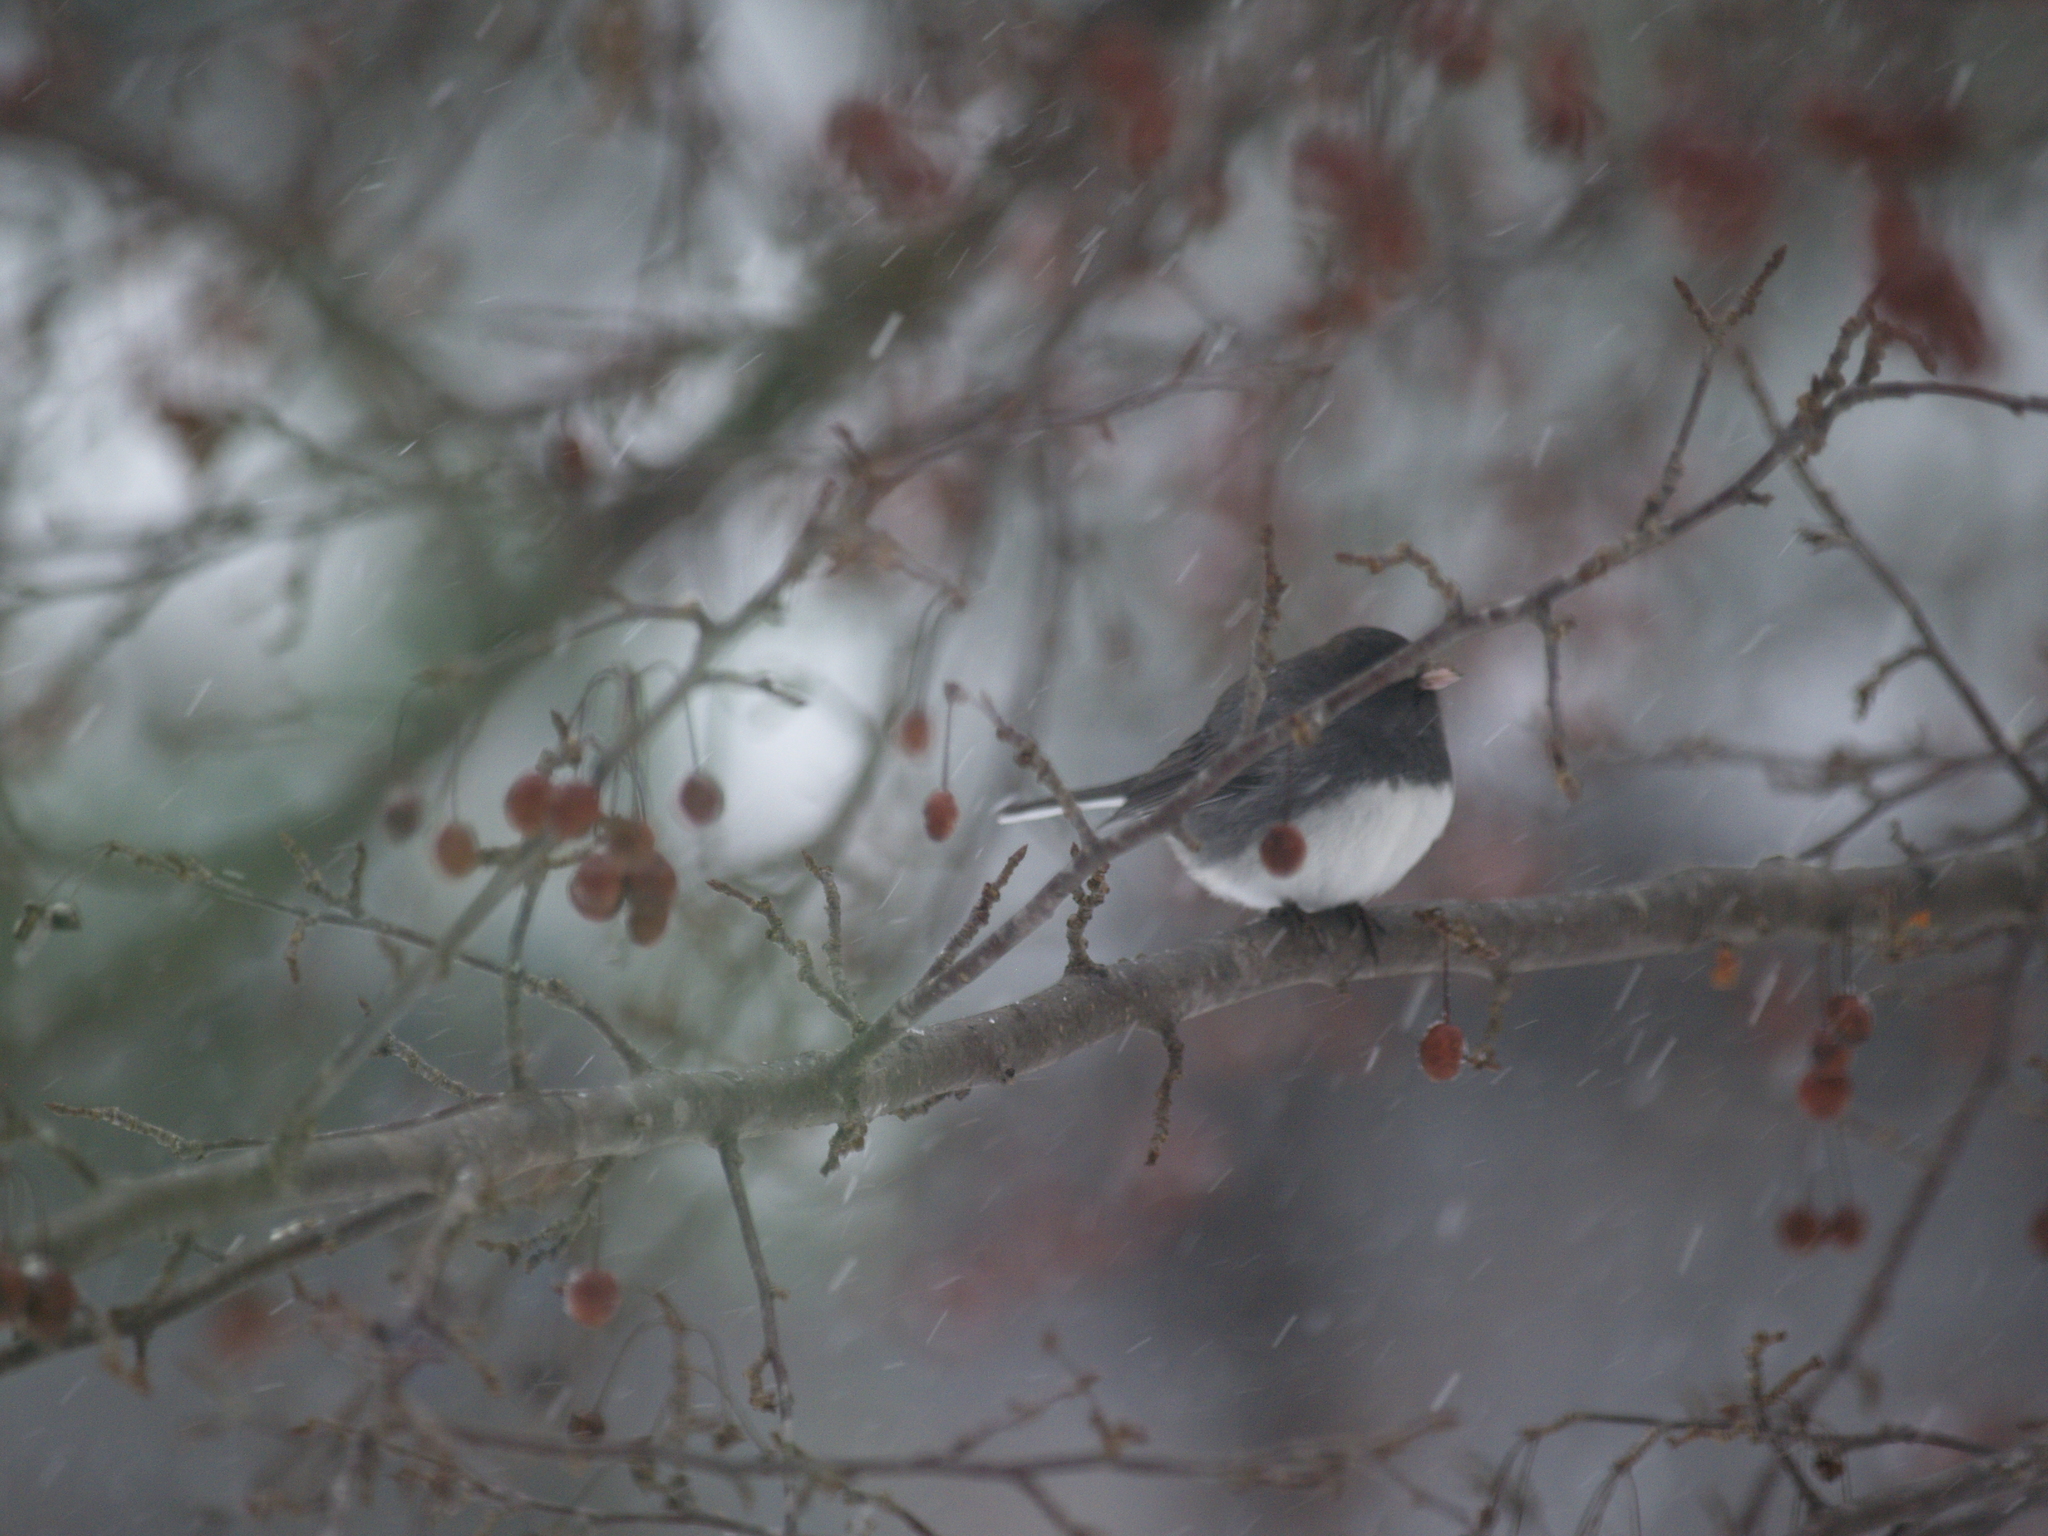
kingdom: Animalia
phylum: Chordata
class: Aves
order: Passeriformes
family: Passerellidae
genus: Junco
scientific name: Junco hyemalis
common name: Dark-eyed junco
